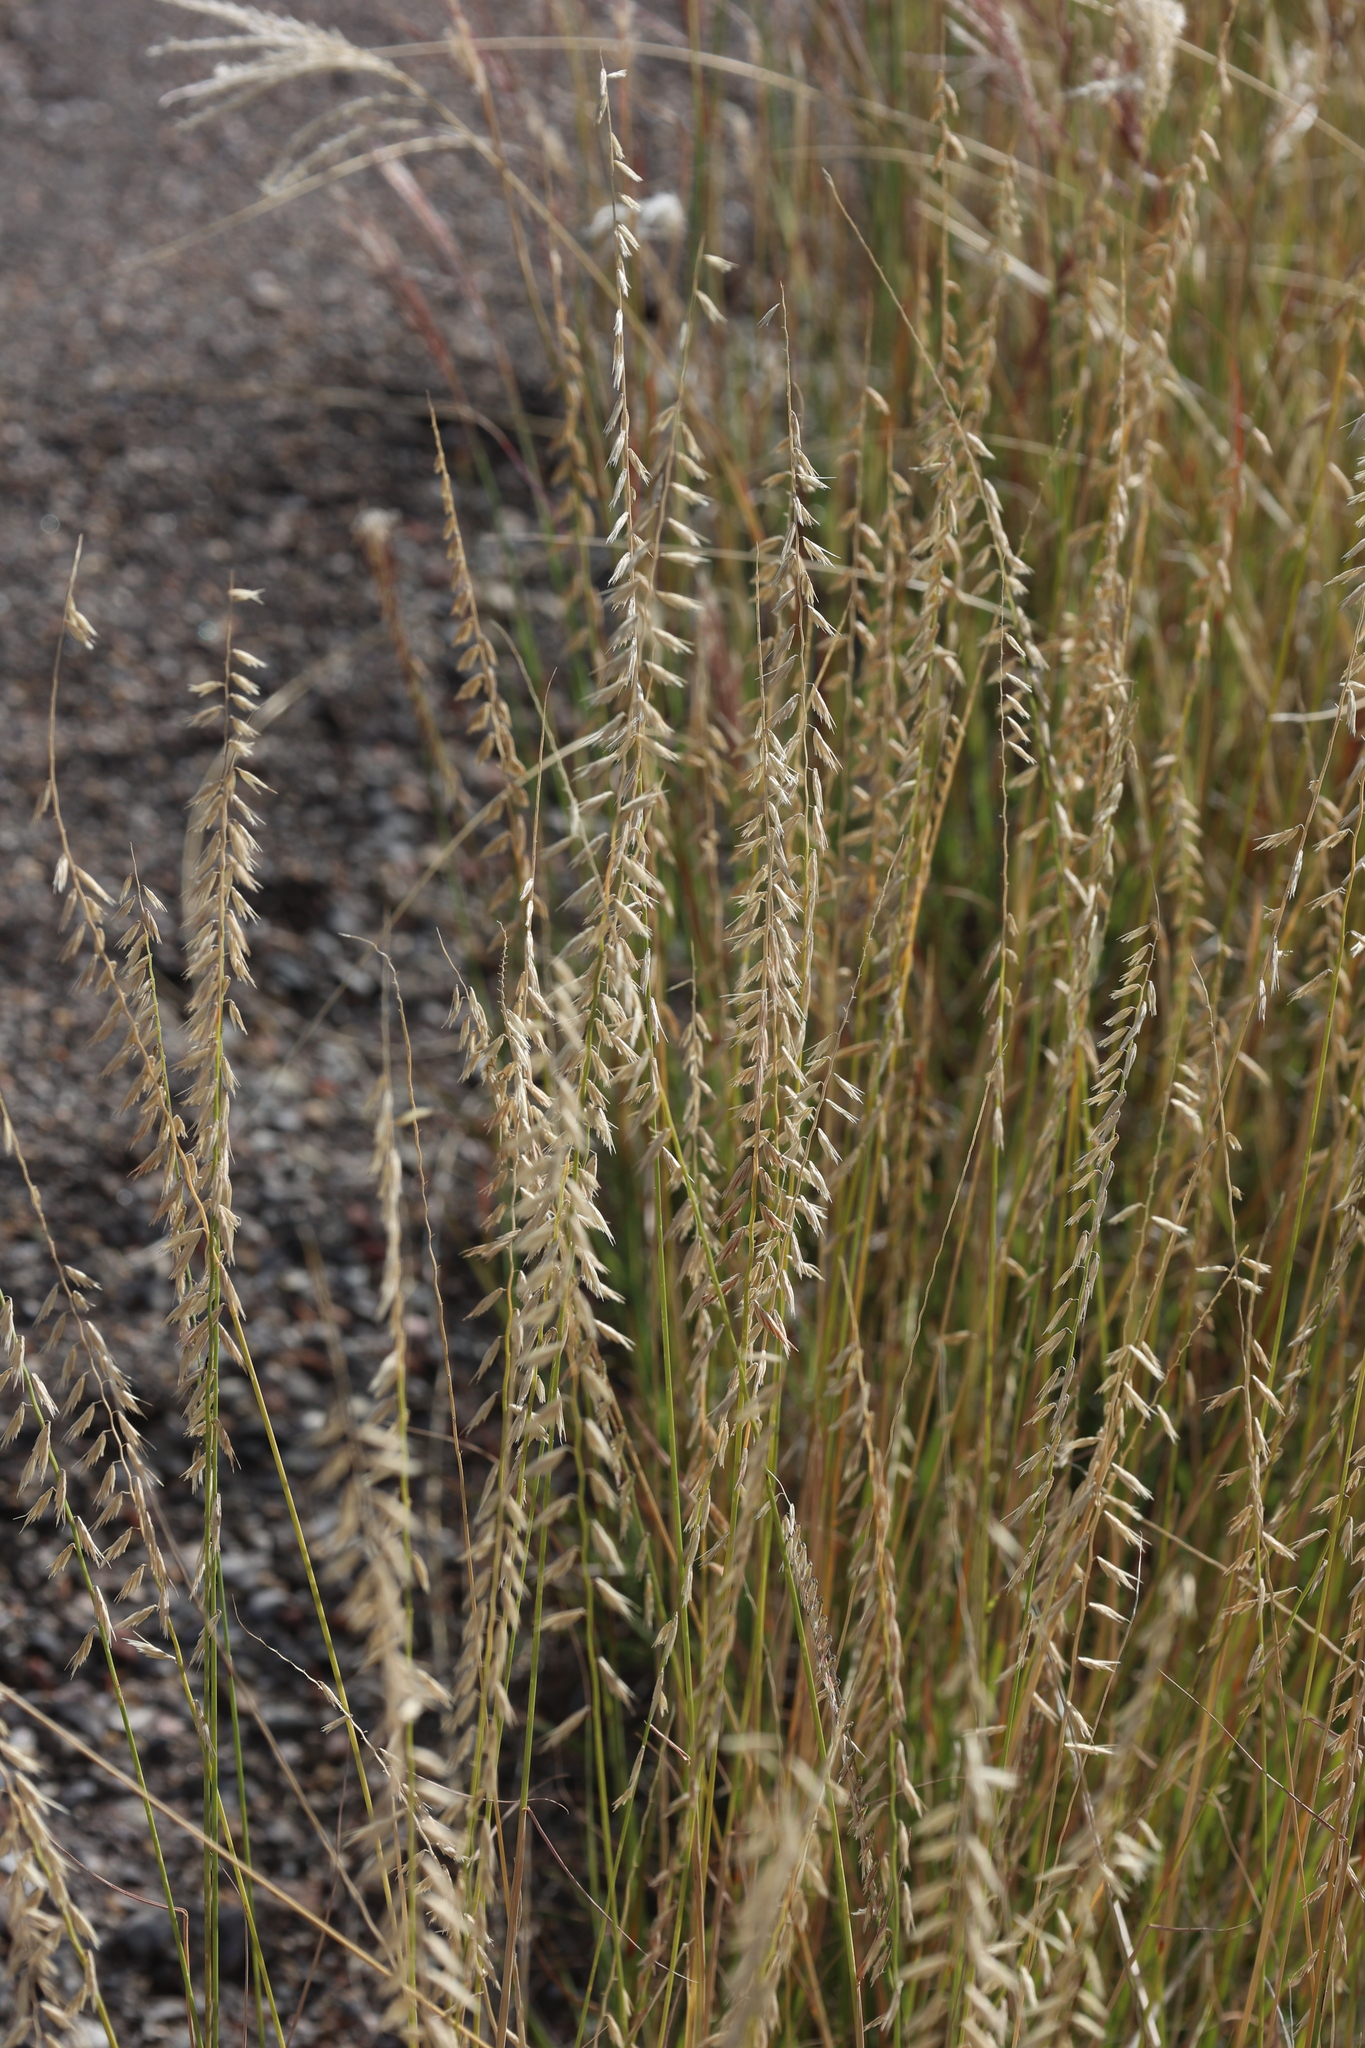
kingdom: Plantae
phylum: Tracheophyta
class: Liliopsida
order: Poales
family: Poaceae
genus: Bouteloua
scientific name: Bouteloua curtipendula
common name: Side-oats grama
